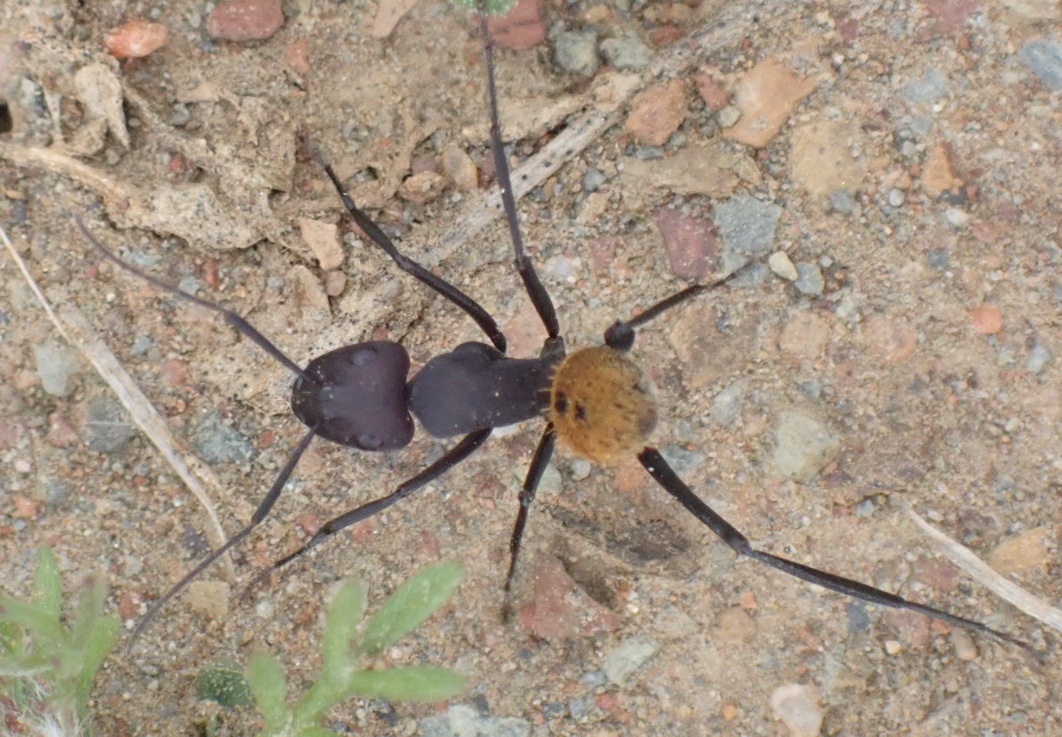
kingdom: Animalia
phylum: Arthropoda
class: Insecta
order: Hymenoptera
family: Formicidae
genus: Camponotus
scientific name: Camponotus fulvopilosus
